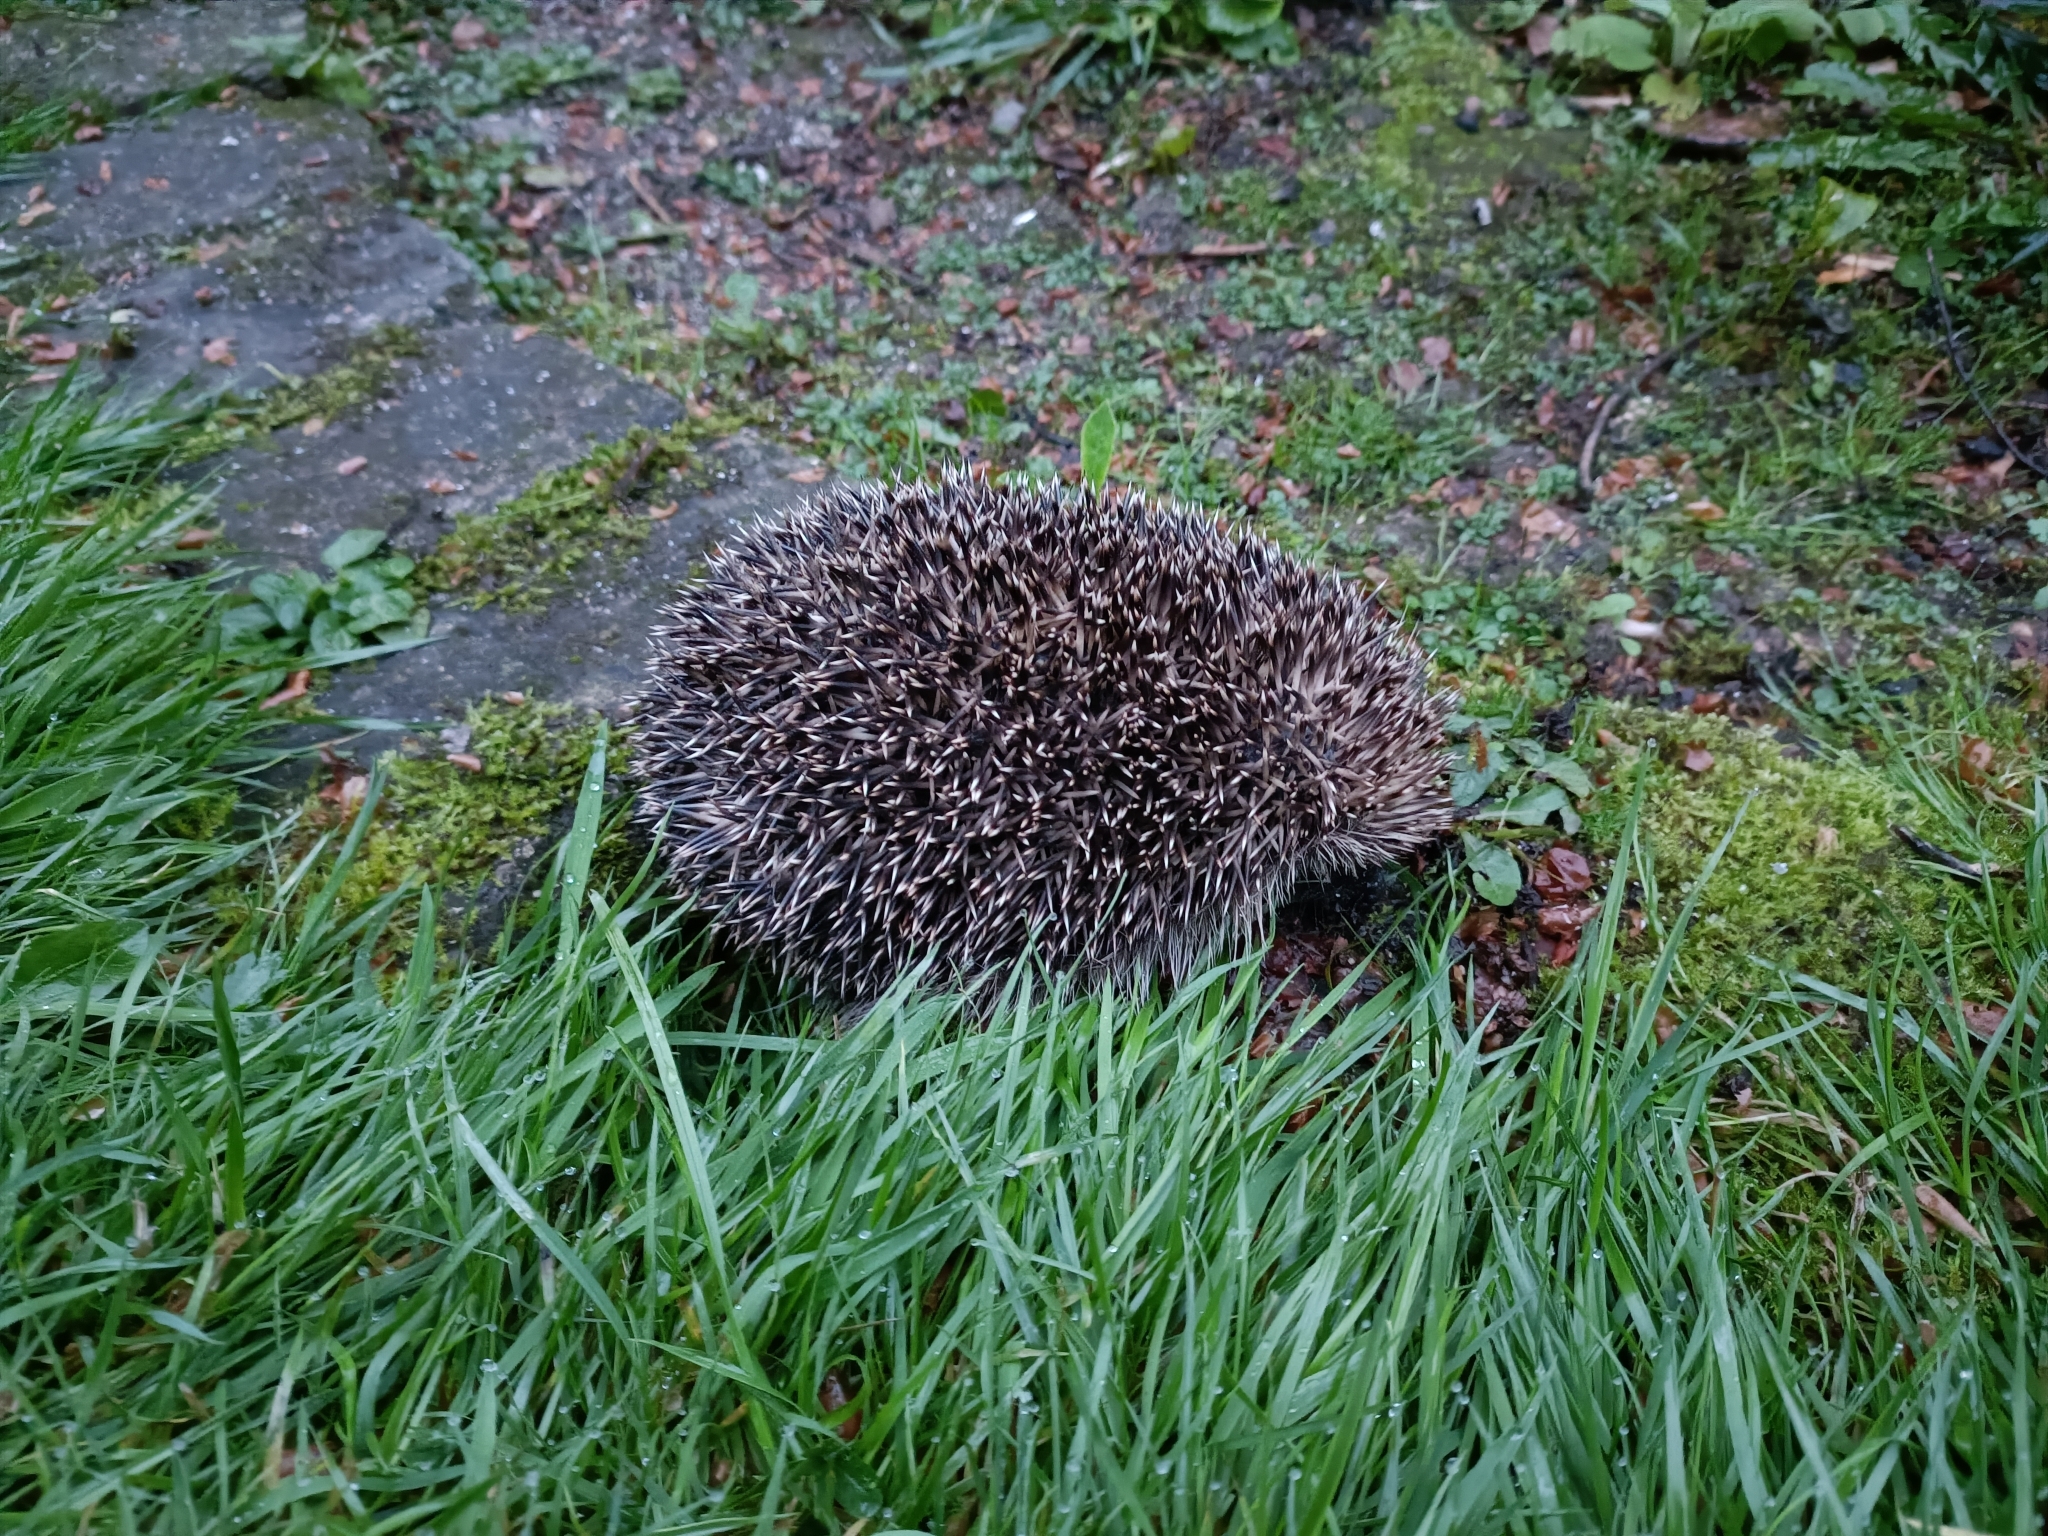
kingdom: Animalia
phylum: Chordata
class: Mammalia
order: Erinaceomorpha
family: Erinaceidae
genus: Erinaceus
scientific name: Erinaceus europaeus
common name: West european hedgehog
